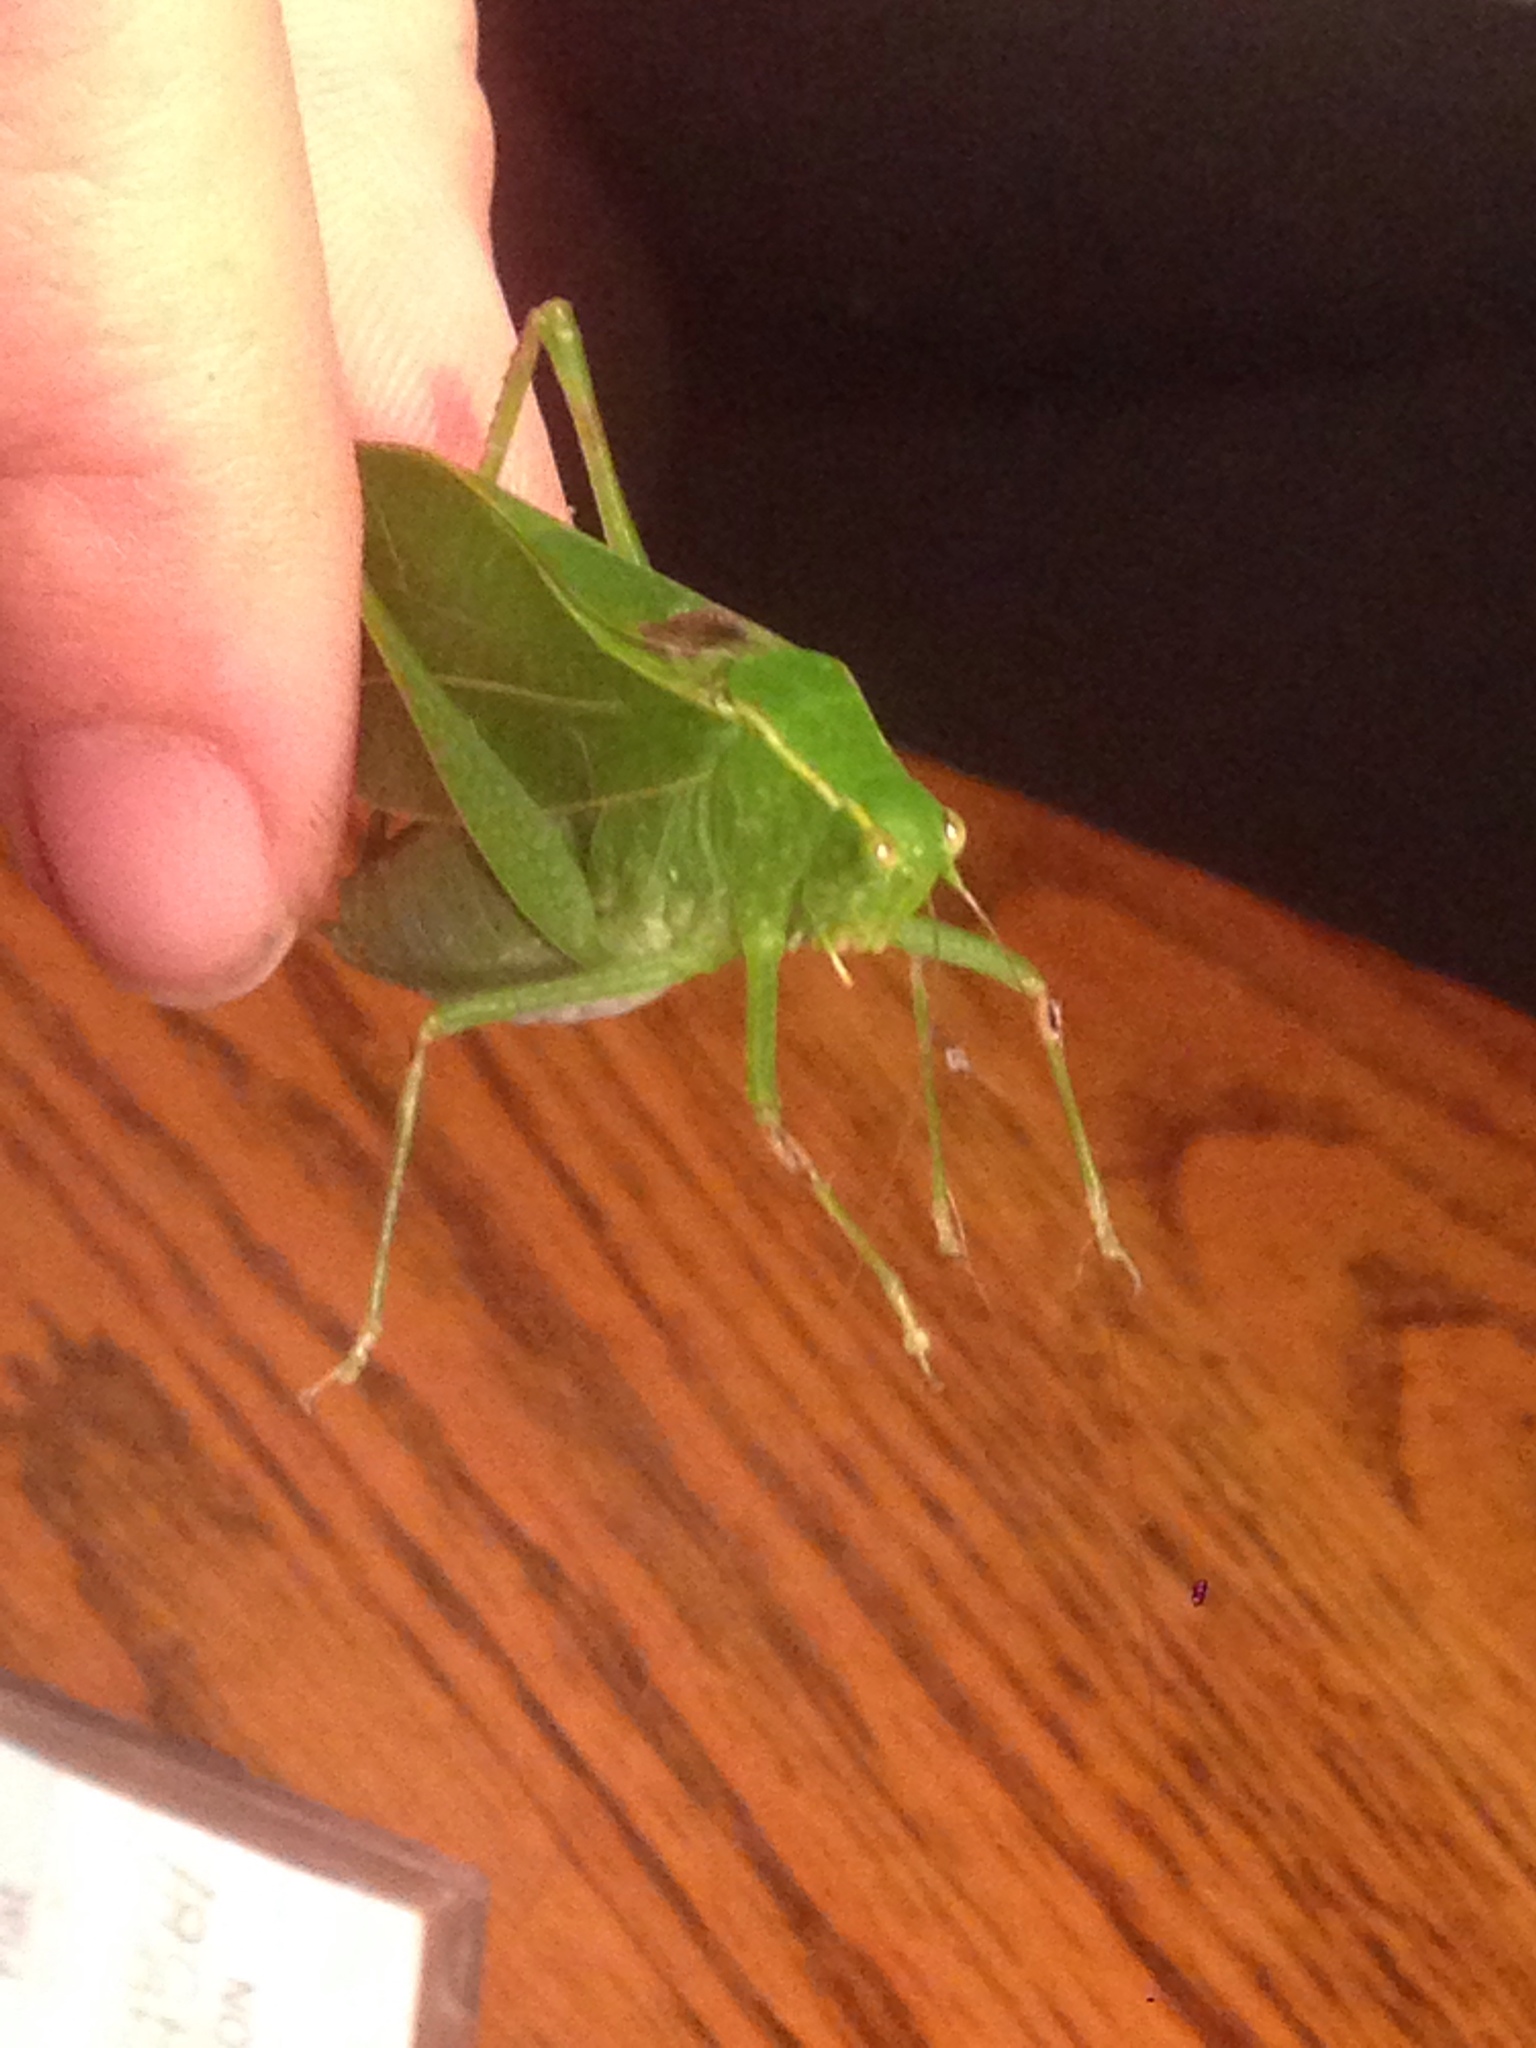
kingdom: Animalia
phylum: Arthropoda
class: Insecta
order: Orthoptera
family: Tettigoniidae
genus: Microcentrum
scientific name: Microcentrum retinerve
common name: Angular-winged katydid
